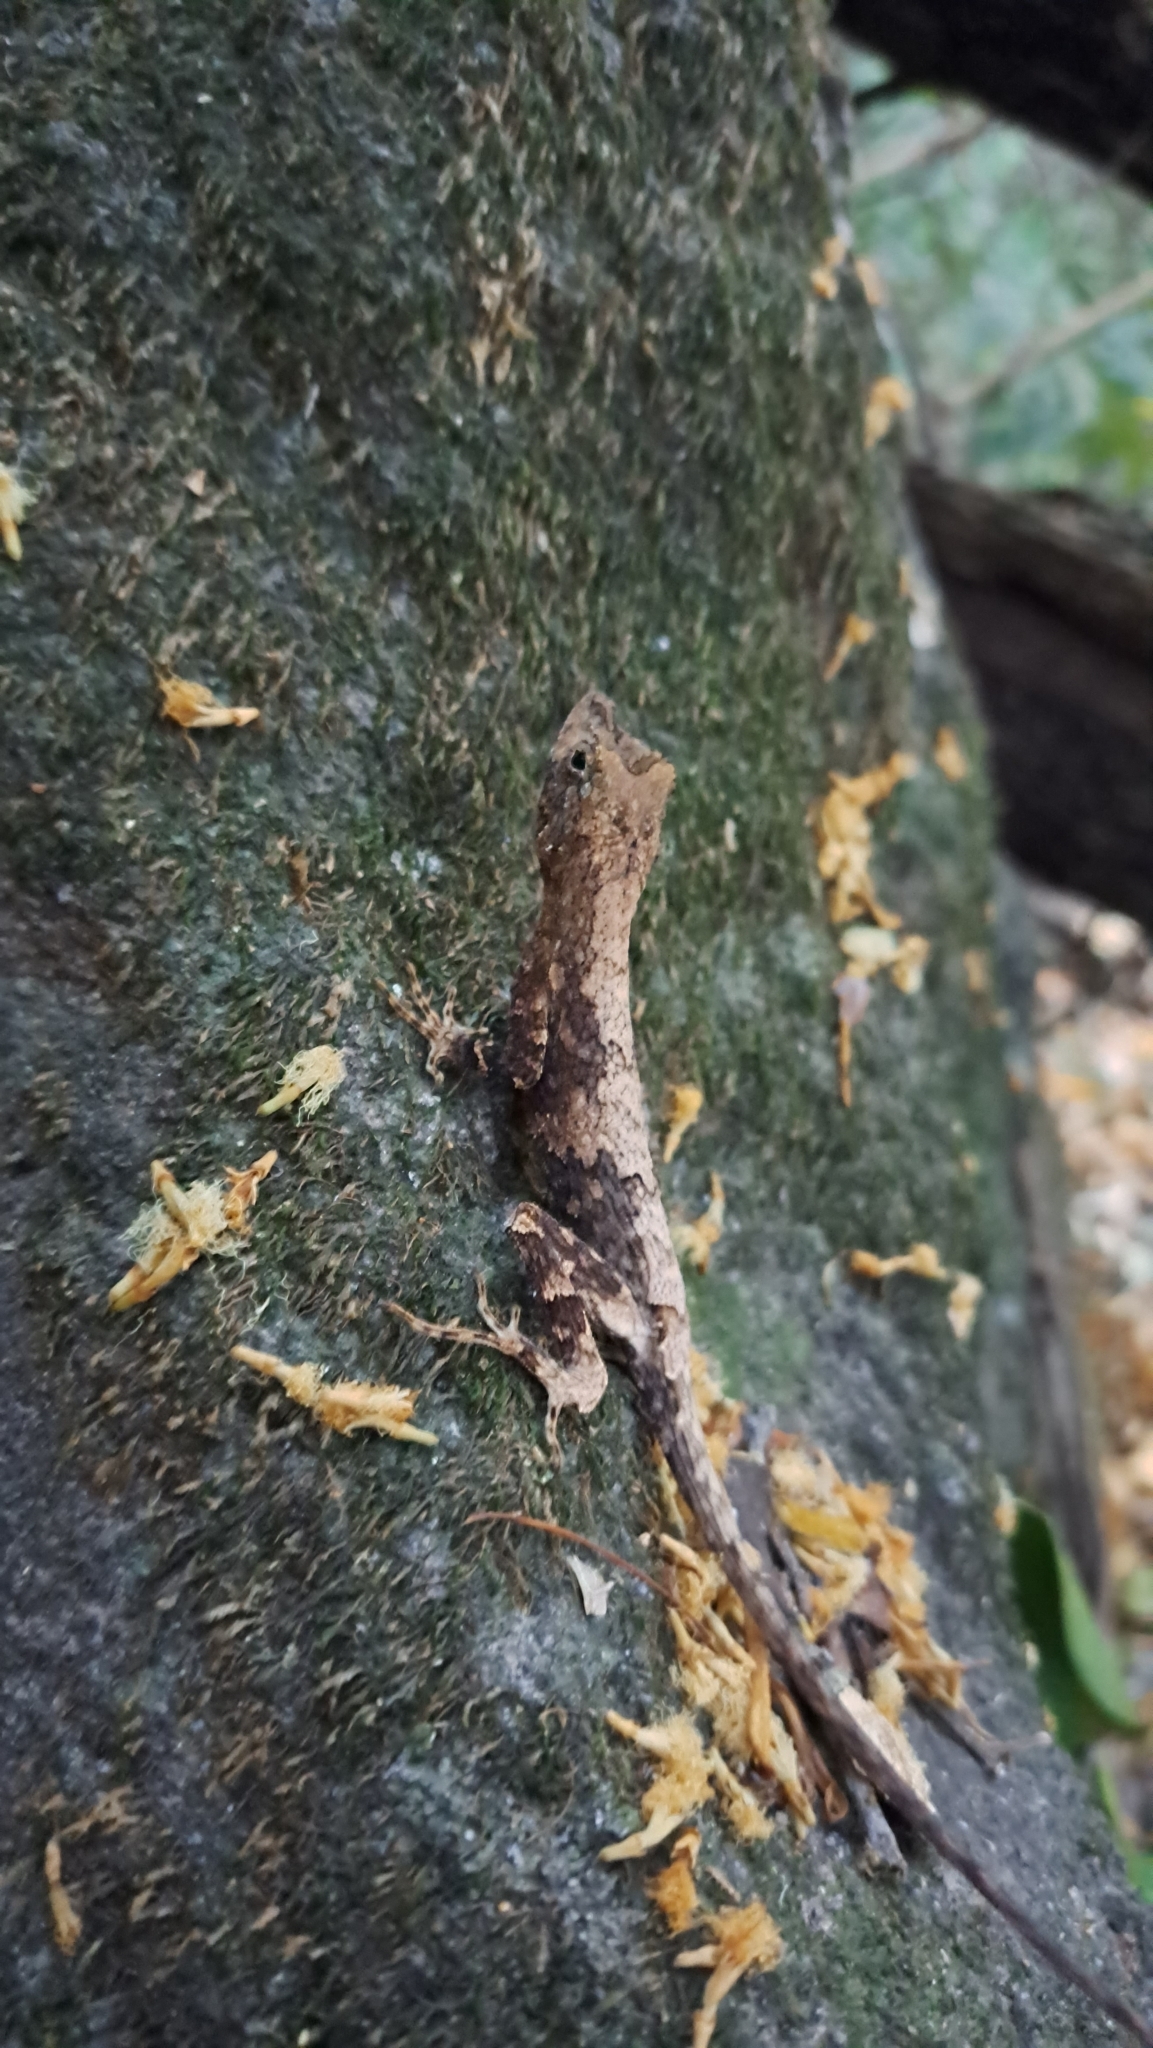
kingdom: Animalia
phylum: Chordata
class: Squamata
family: Dactyloidae
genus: Anolis
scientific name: Anolis capito
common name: Bighead anole
